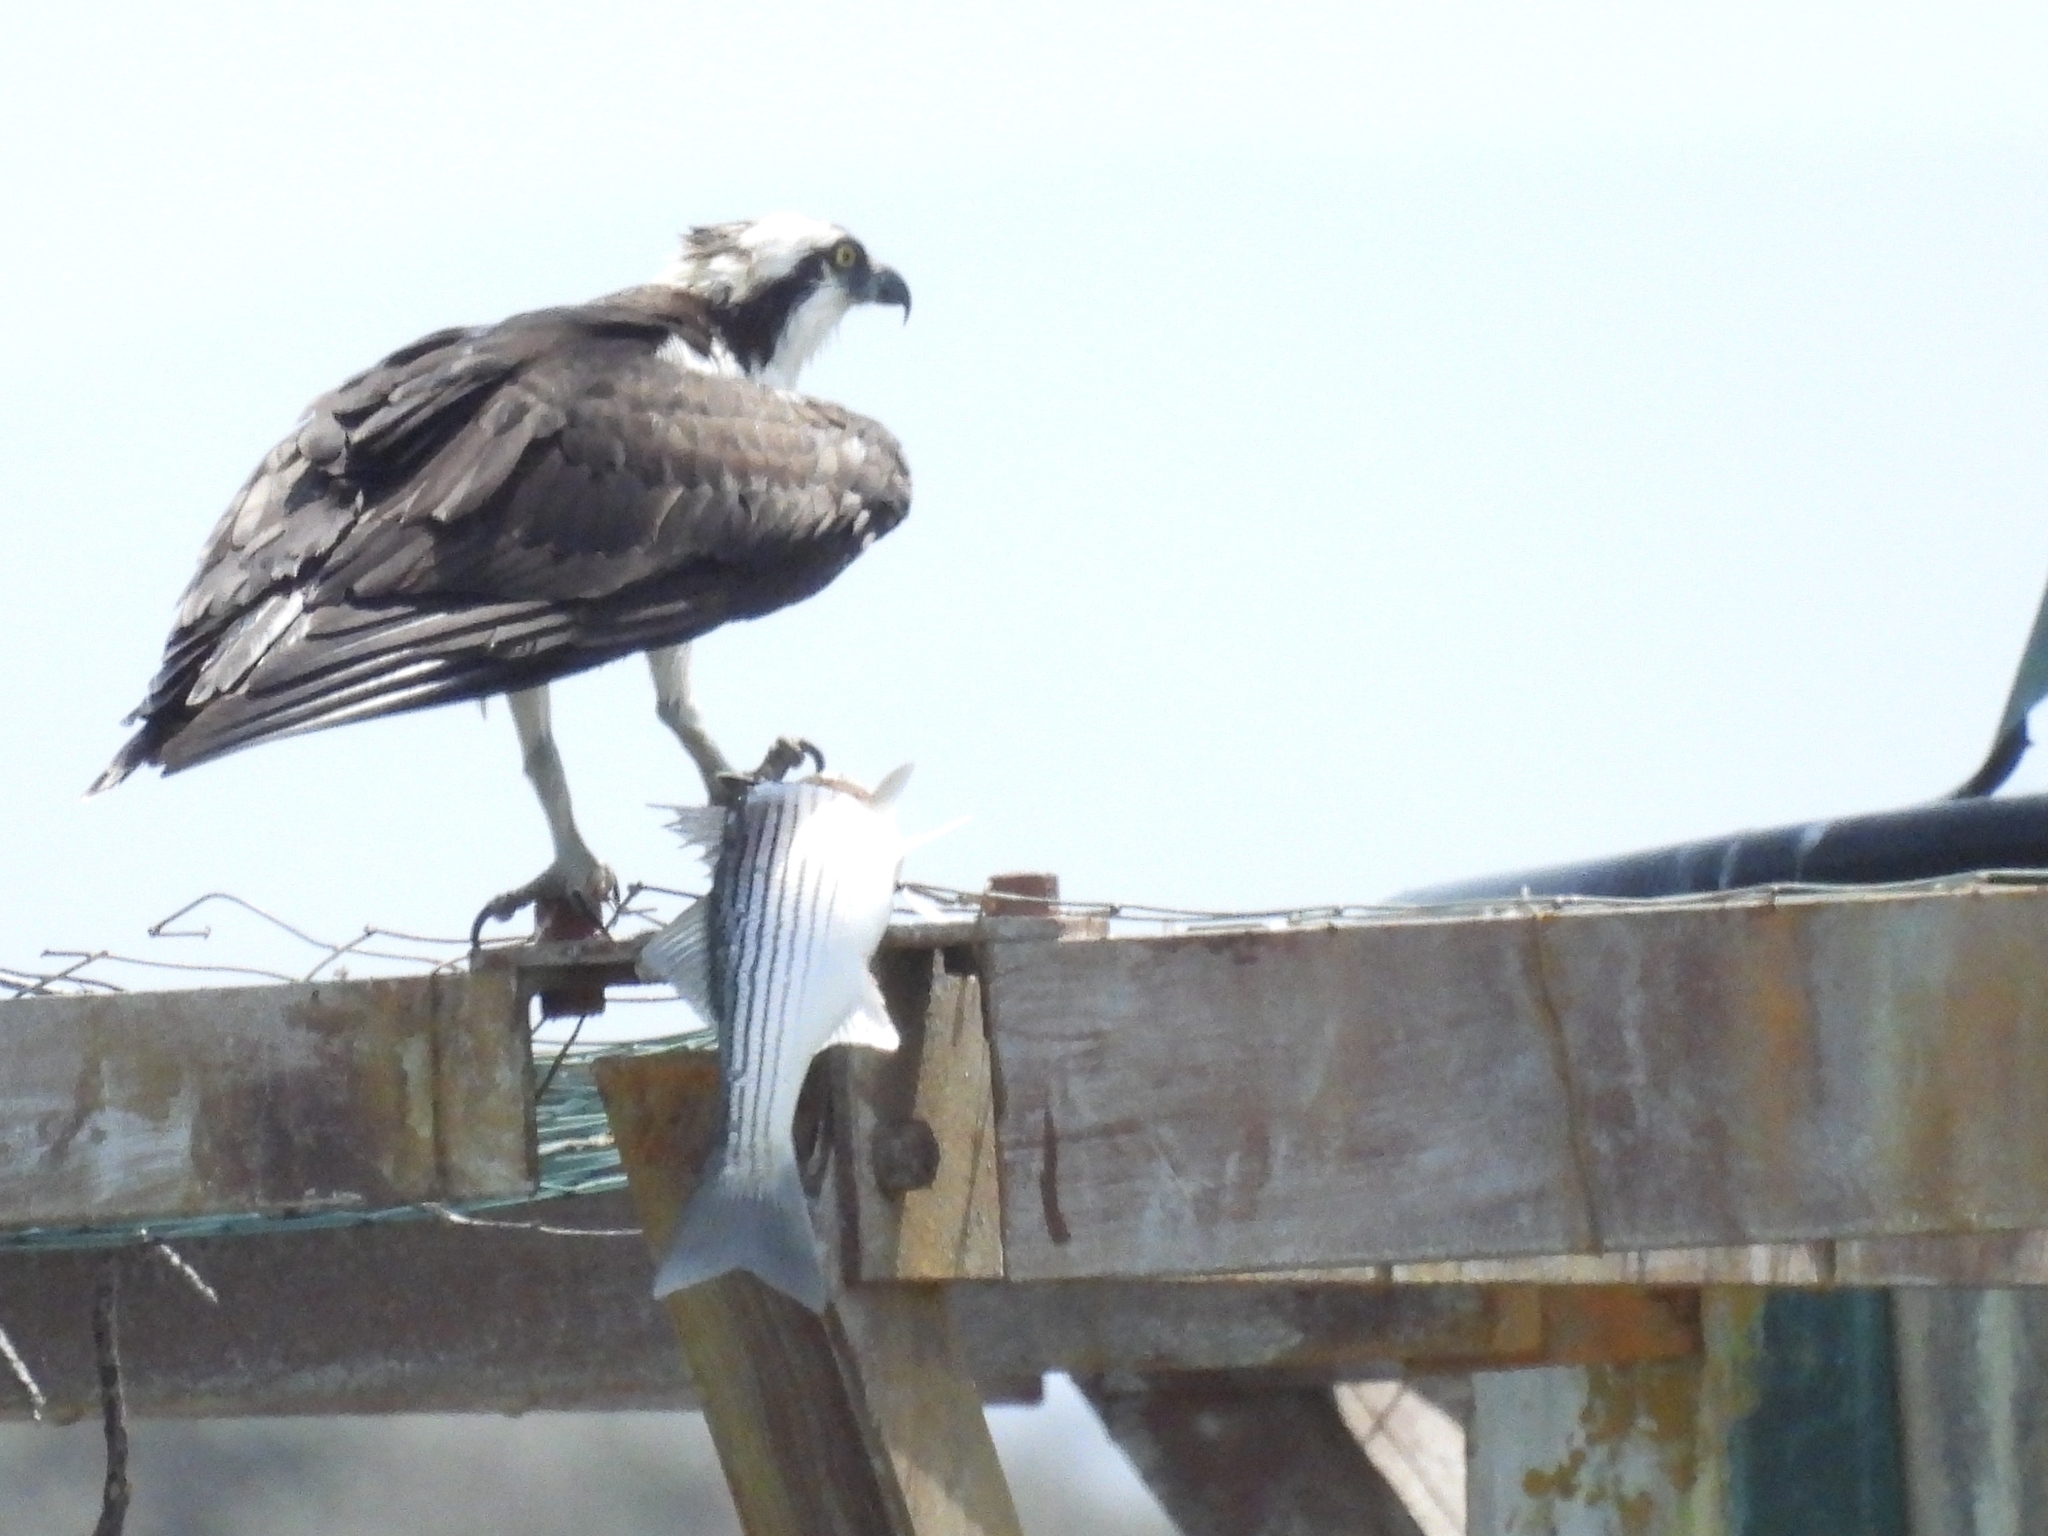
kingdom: Animalia
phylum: Chordata
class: Aves
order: Accipitriformes
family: Pandionidae
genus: Pandion
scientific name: Pandion haliaetus
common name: Osprey
